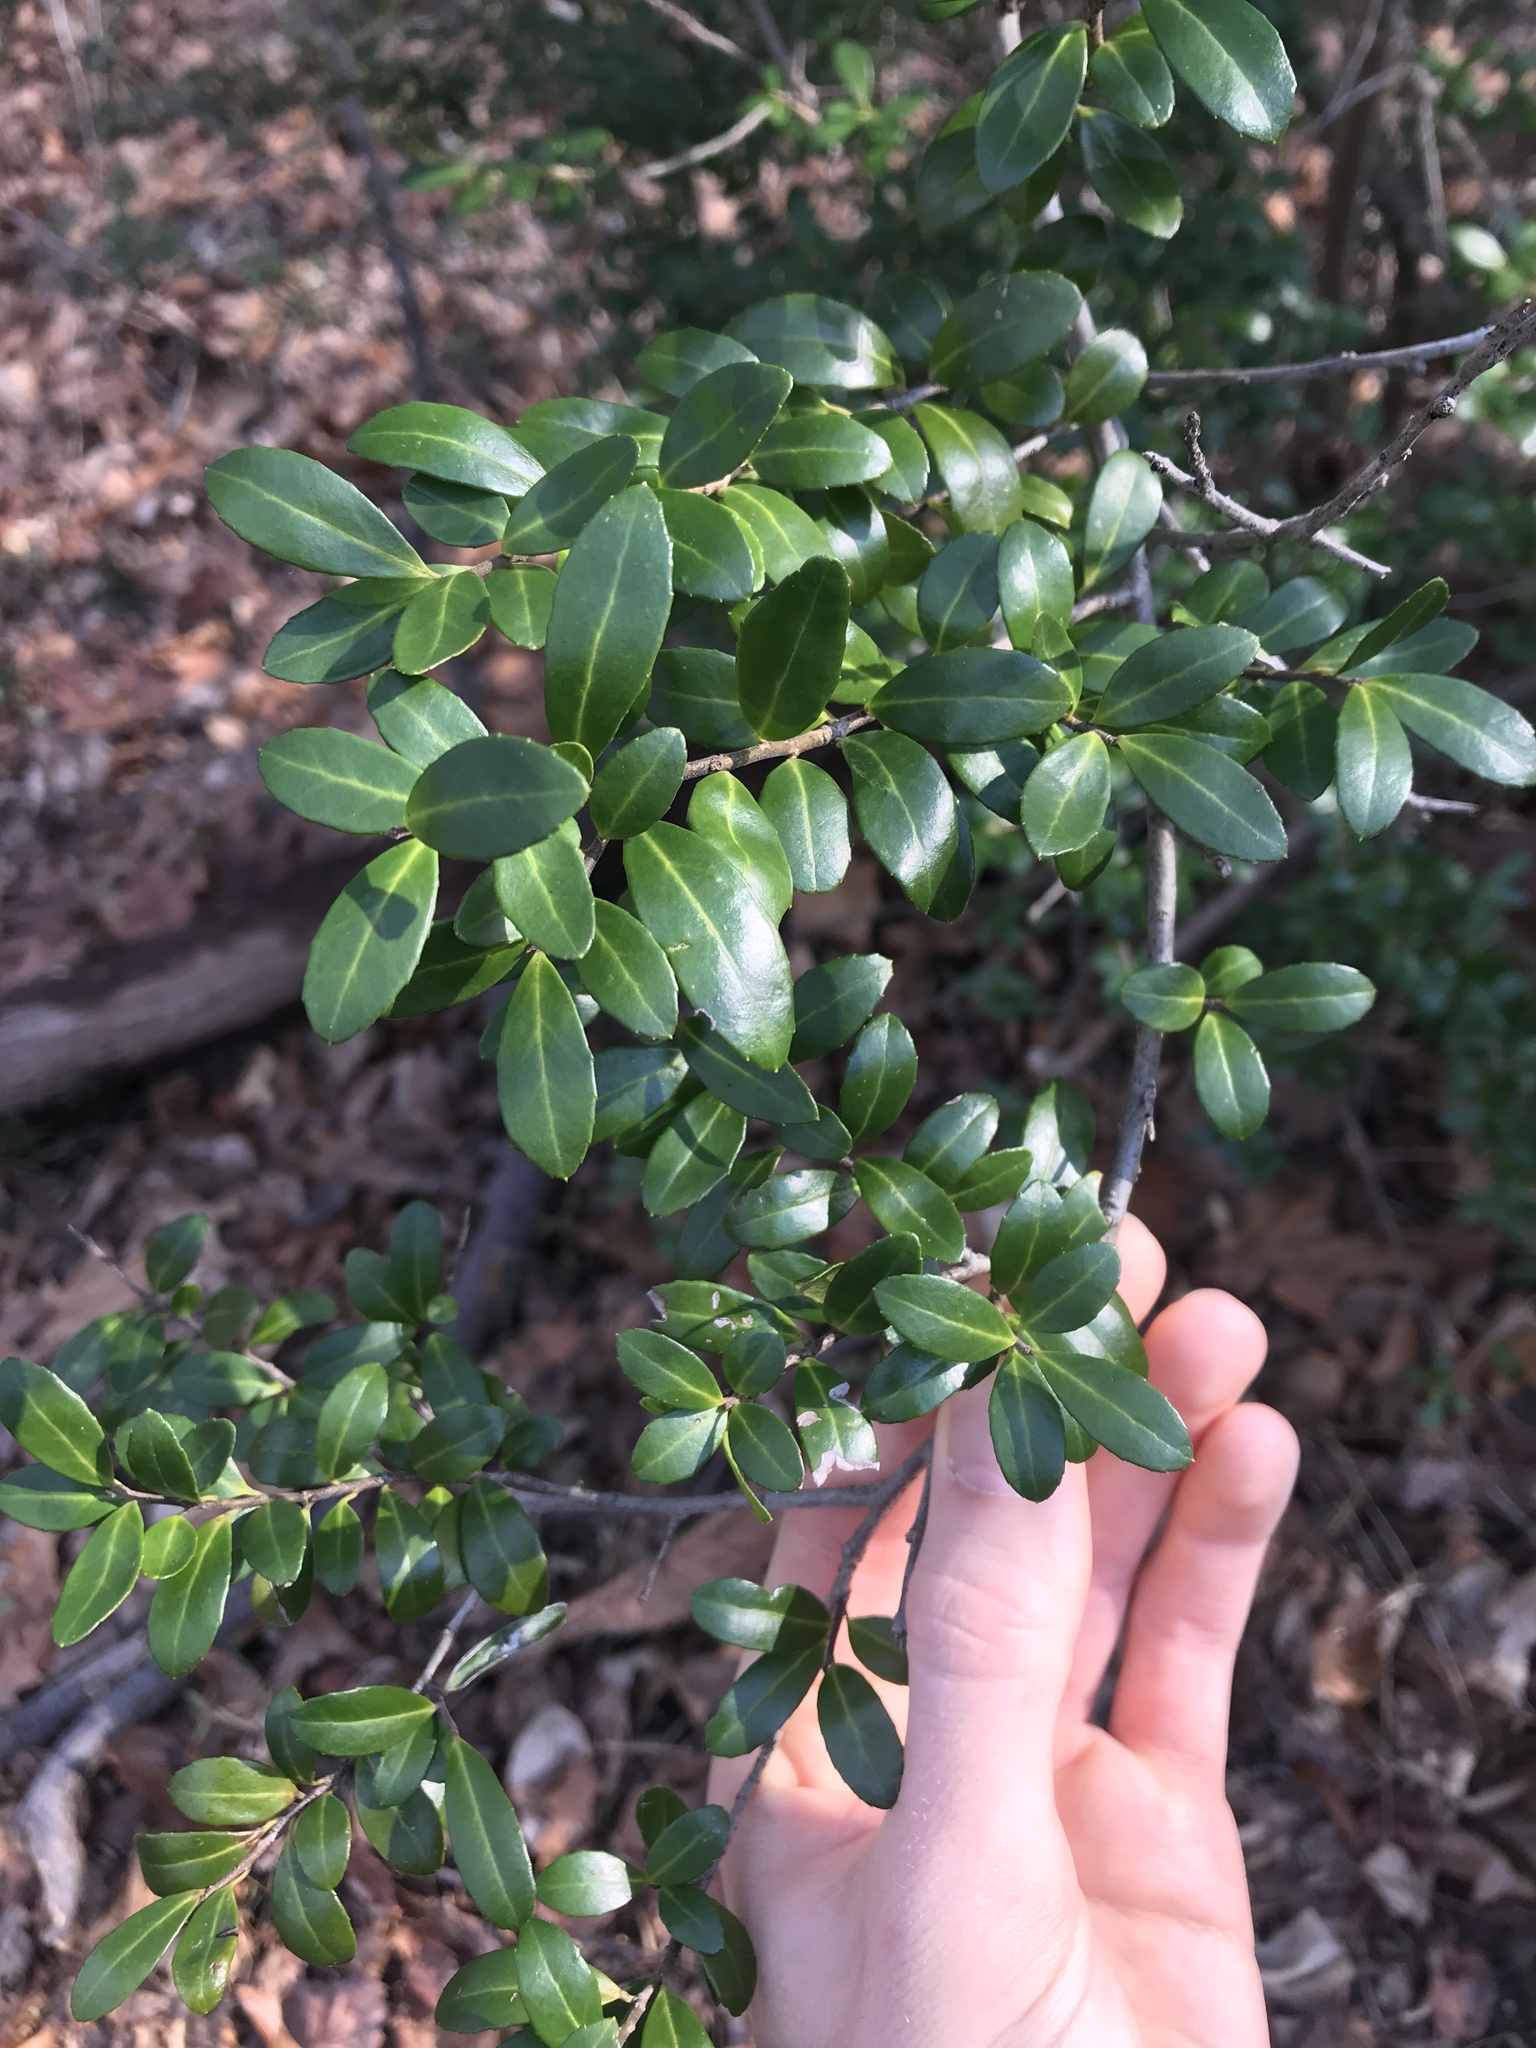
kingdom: Plantae
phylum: Tracheophyta
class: Magnoliopsida
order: Aquifoliales
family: Aquifoliaceae
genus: Ilex
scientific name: Ilex crenata
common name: Japanese holly
